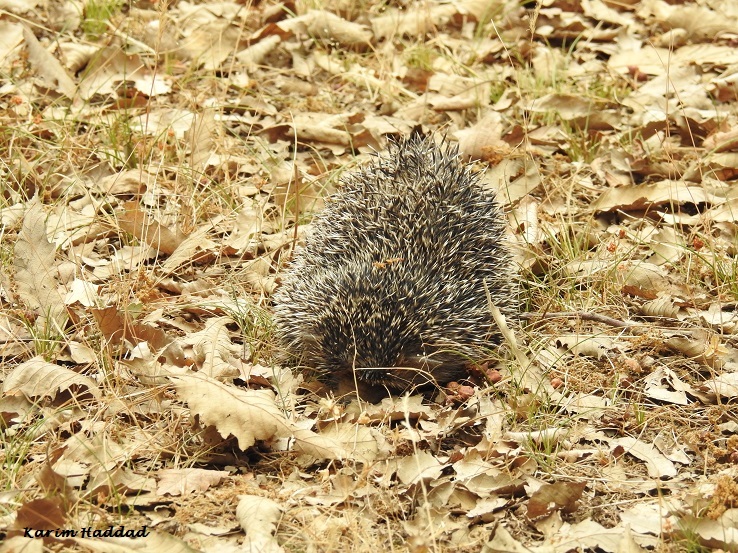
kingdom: Animalia
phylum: Chordata
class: Mammalia
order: Erinaceomorpha
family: Erinaceidae
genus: Atelerix
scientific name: Atelerix algirus
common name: North african hedgehog
